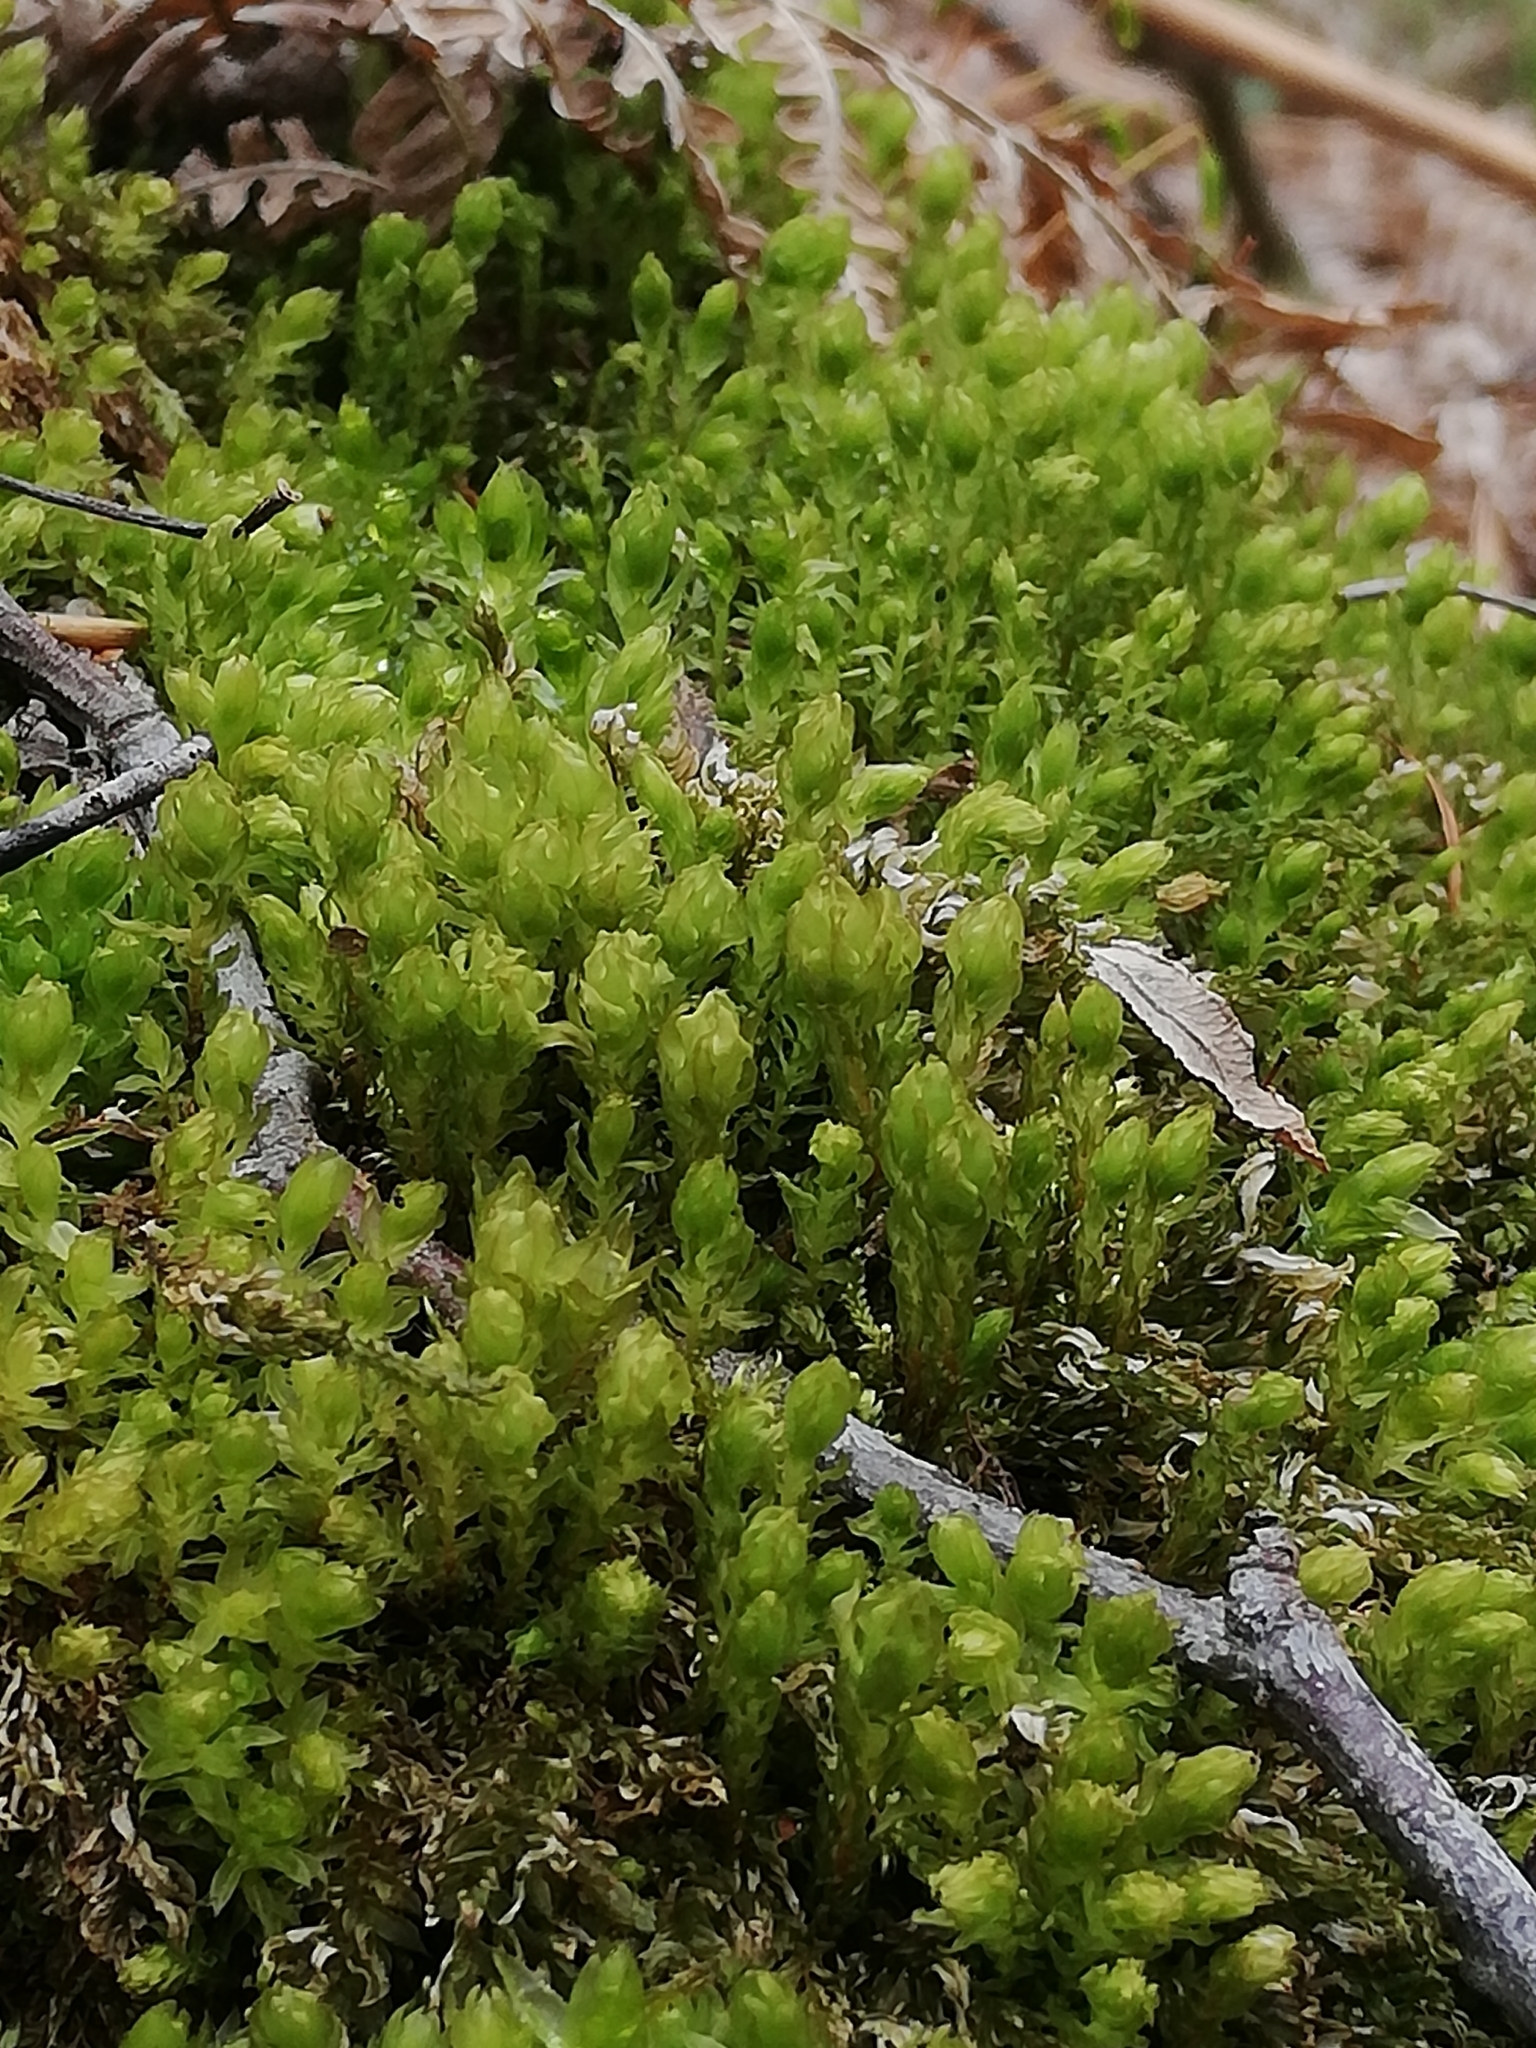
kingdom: Plantae
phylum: Bryophyta
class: Bryopsida
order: Bryales
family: Mniaceae
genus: Mnium
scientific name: Mnium hornum
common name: Swan's-neck leafy moss
